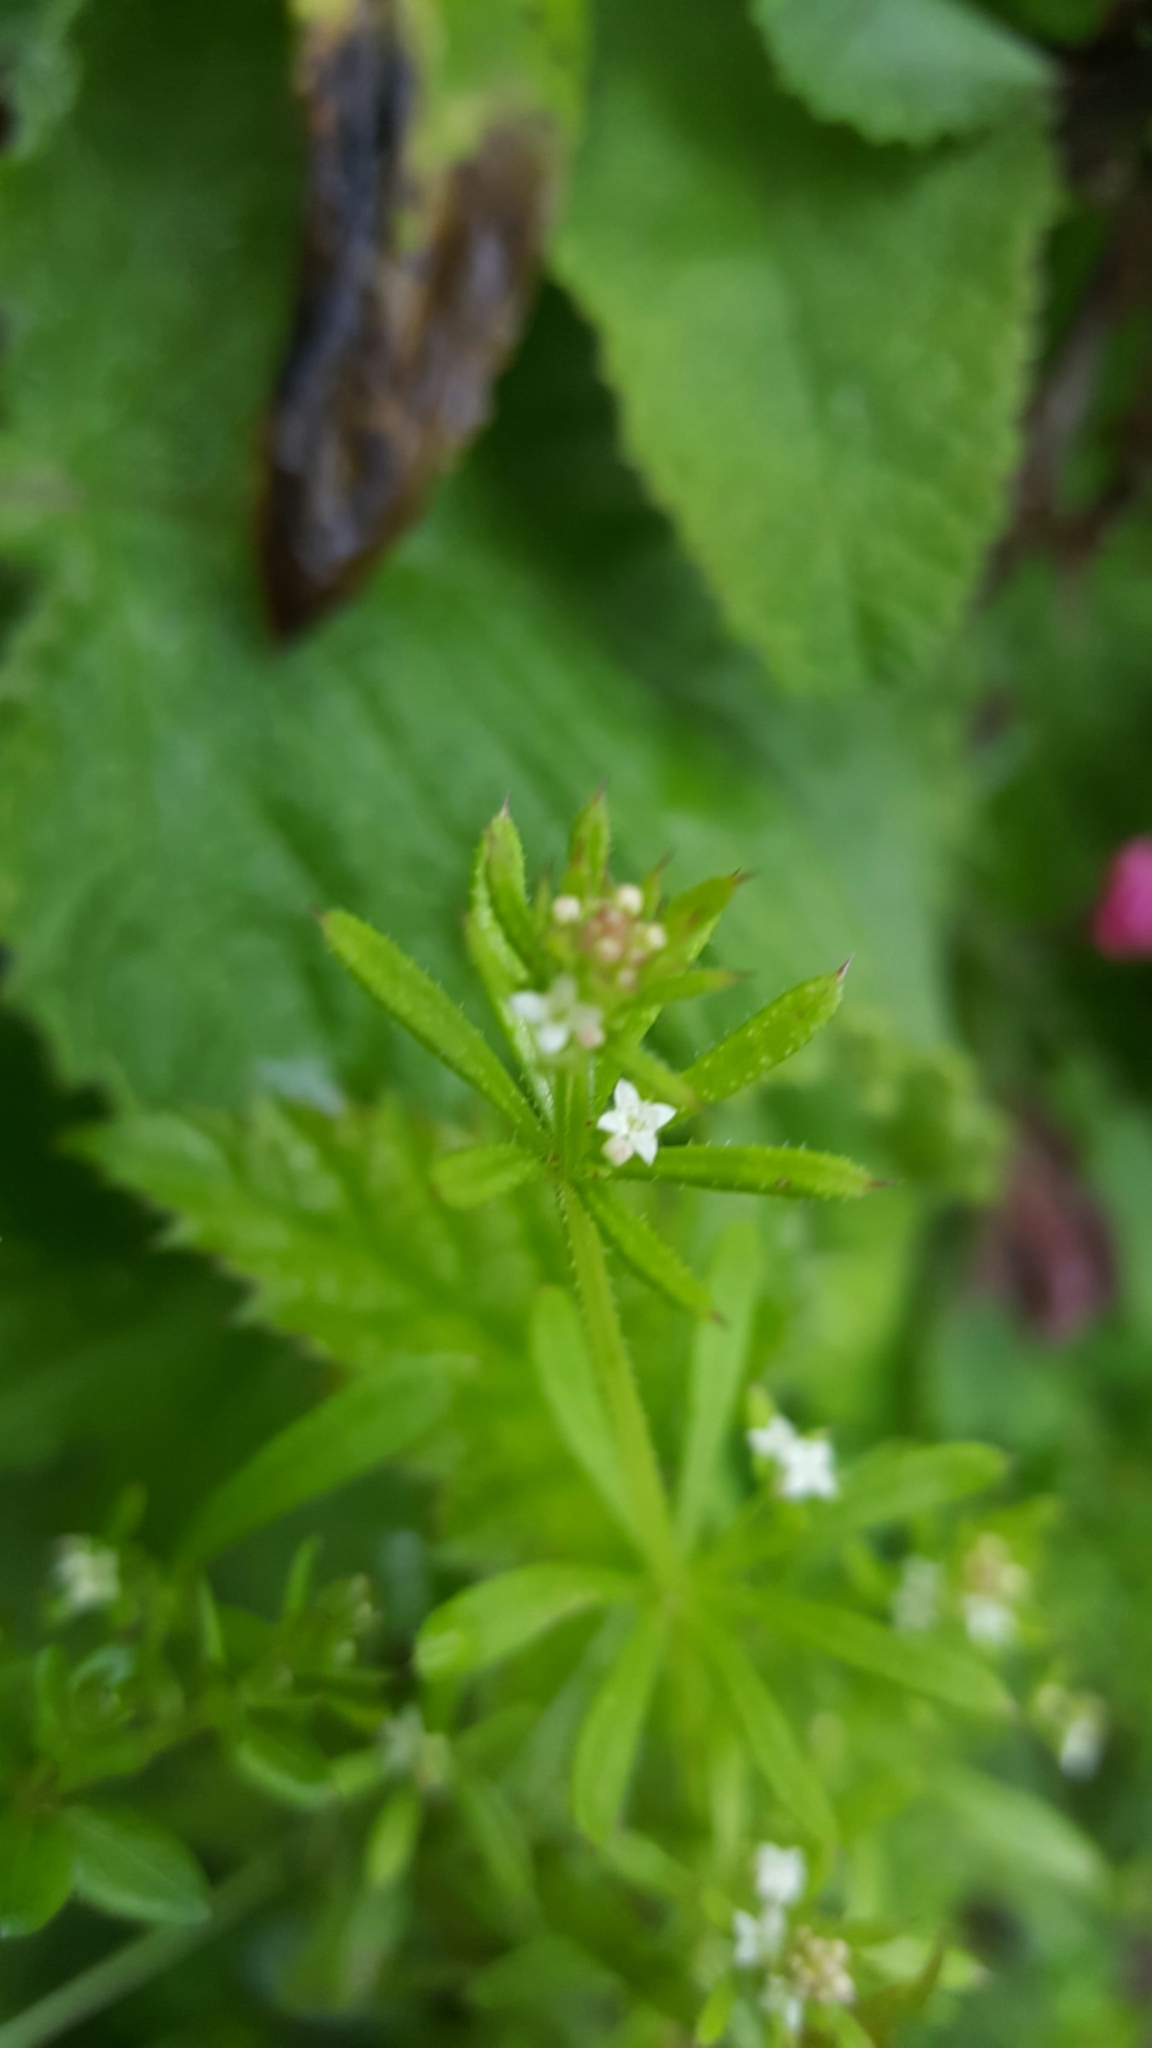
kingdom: Plantae
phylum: Tracheophyta
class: Magnoliopsida
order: Gentianales
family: Rubiaceae
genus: Galium
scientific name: Galium aparine
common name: Cleavers
